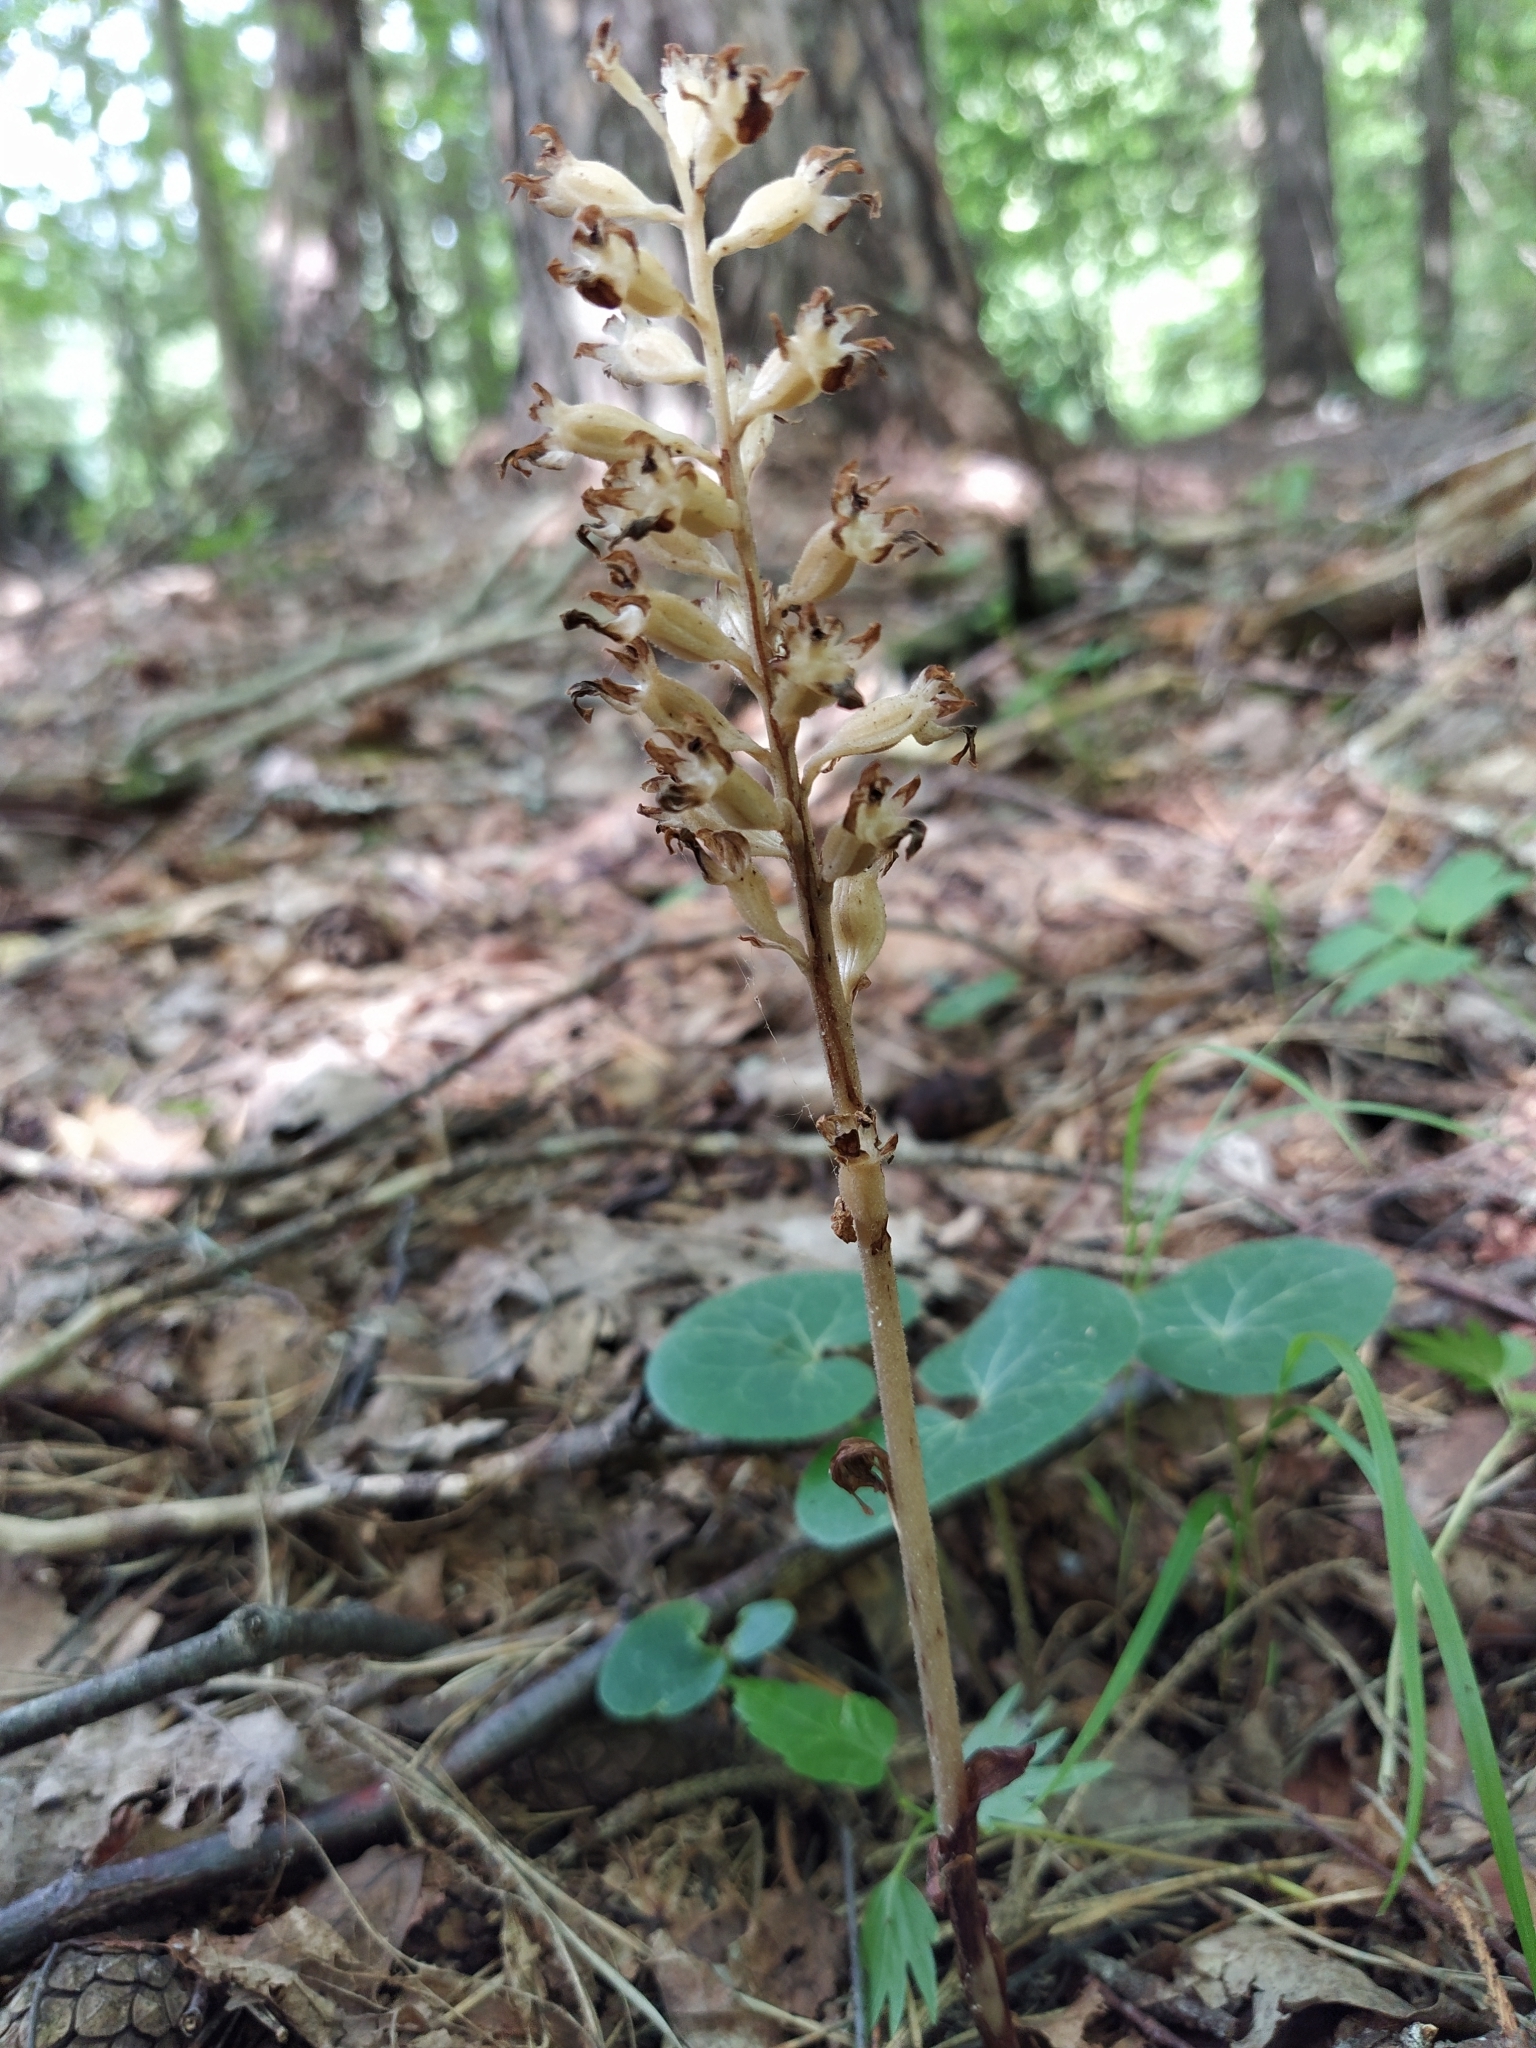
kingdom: Plantae
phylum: Tracheophyta
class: Liliopsida
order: Asparagales
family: Orchidaceae
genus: Neottia
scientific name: Neottia nidus-avis
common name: Bird's-nest orchid
